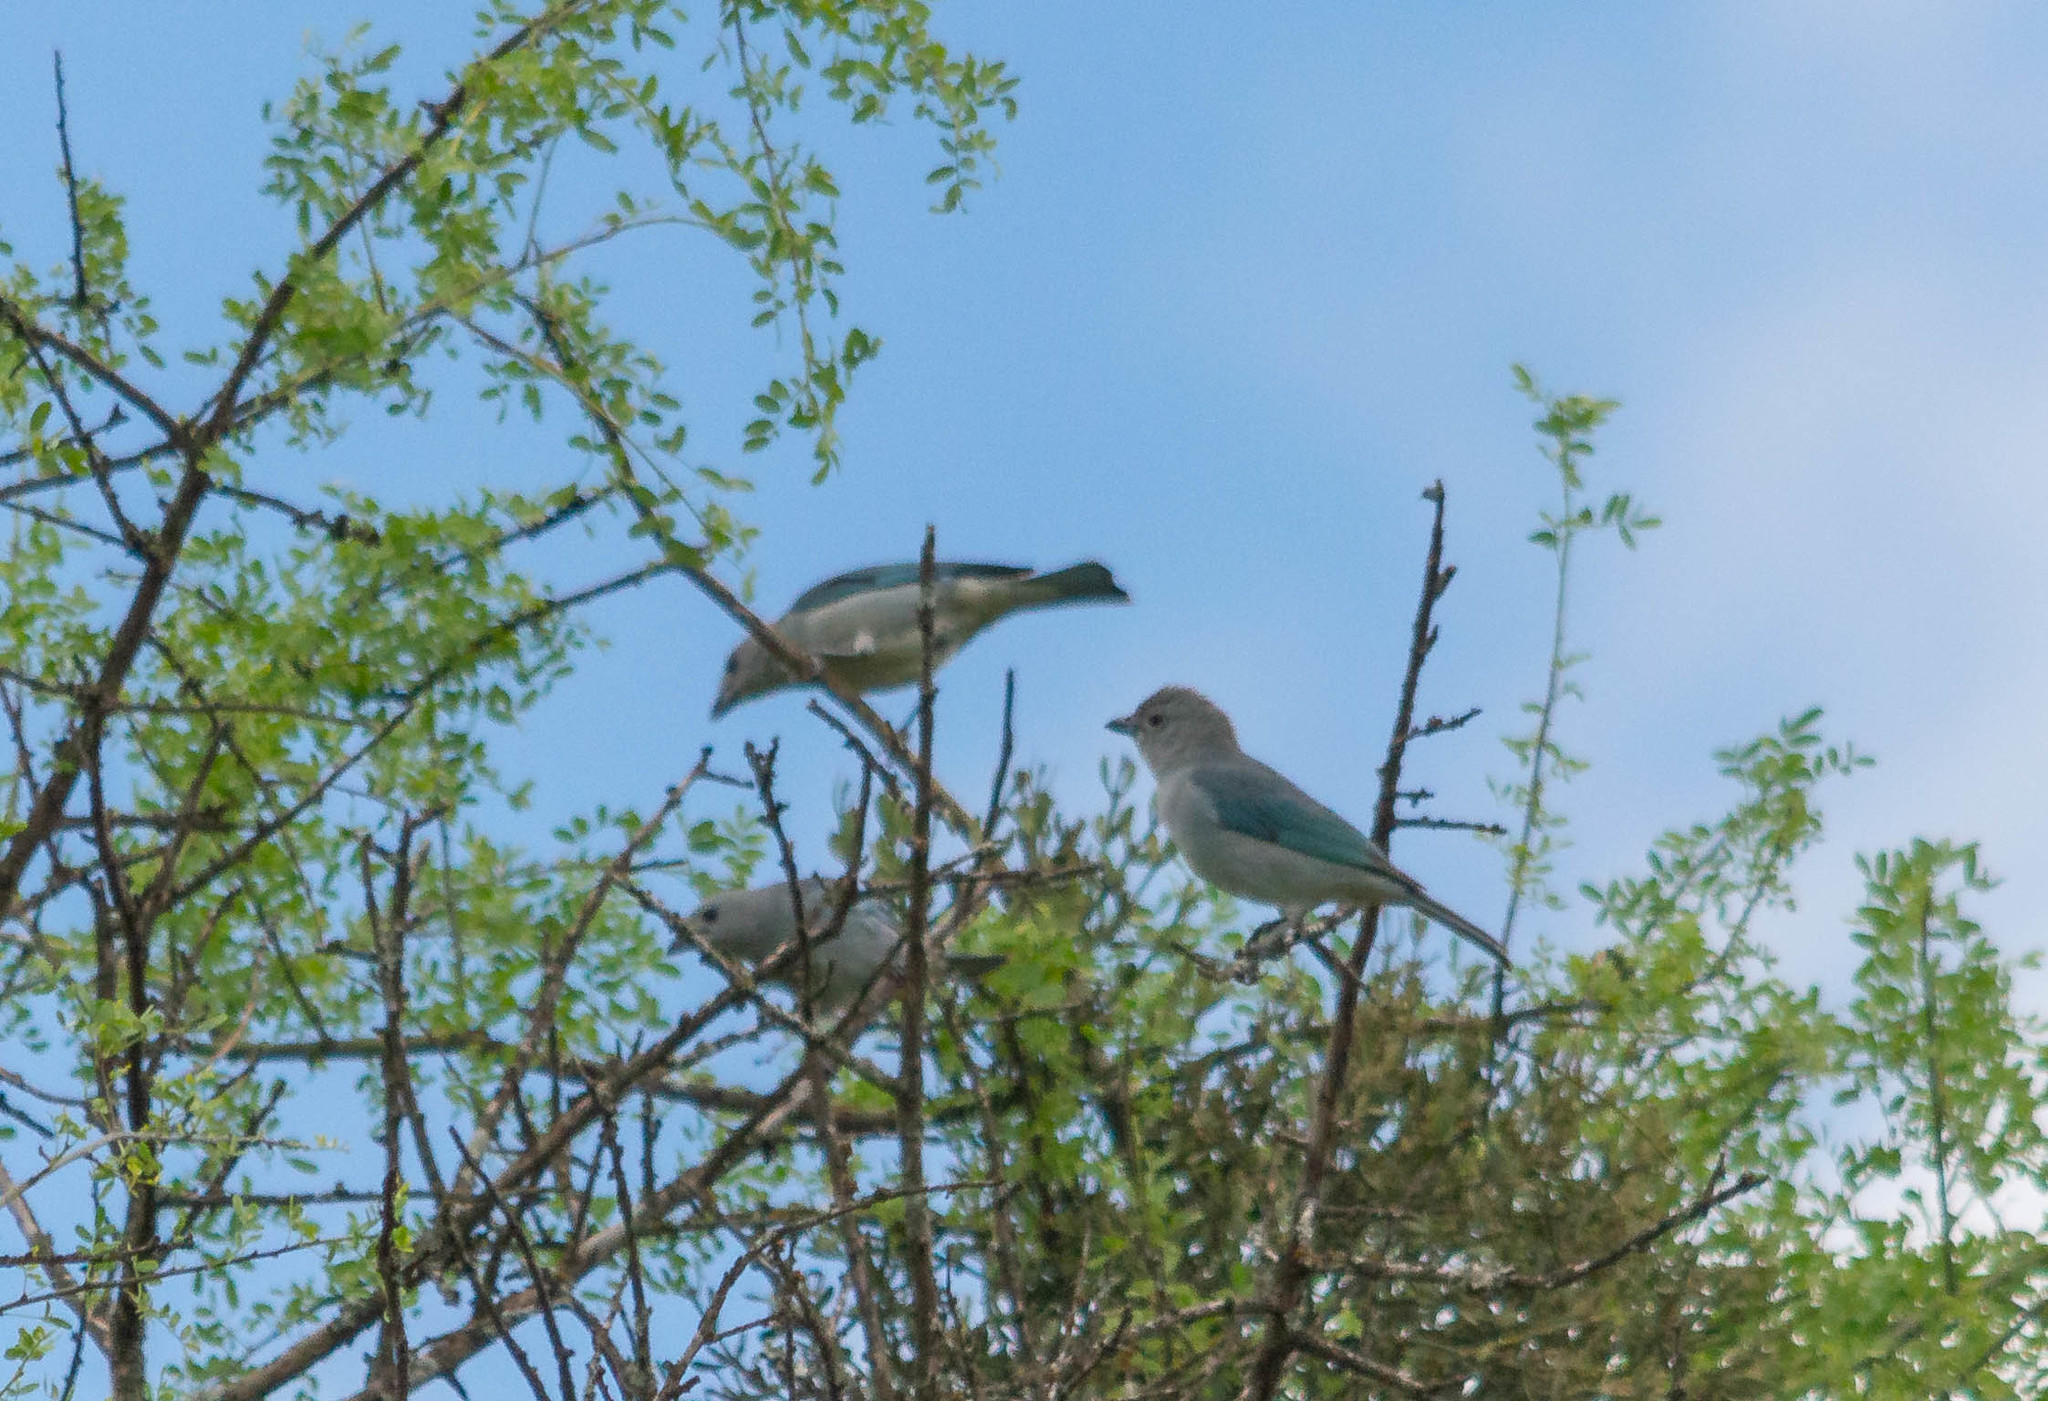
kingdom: Animalia
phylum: Chordata
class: Aves
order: Passeriformes
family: Thraupidae
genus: Thraupis
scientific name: Thraupis sayaca
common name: Sayaca tanager
